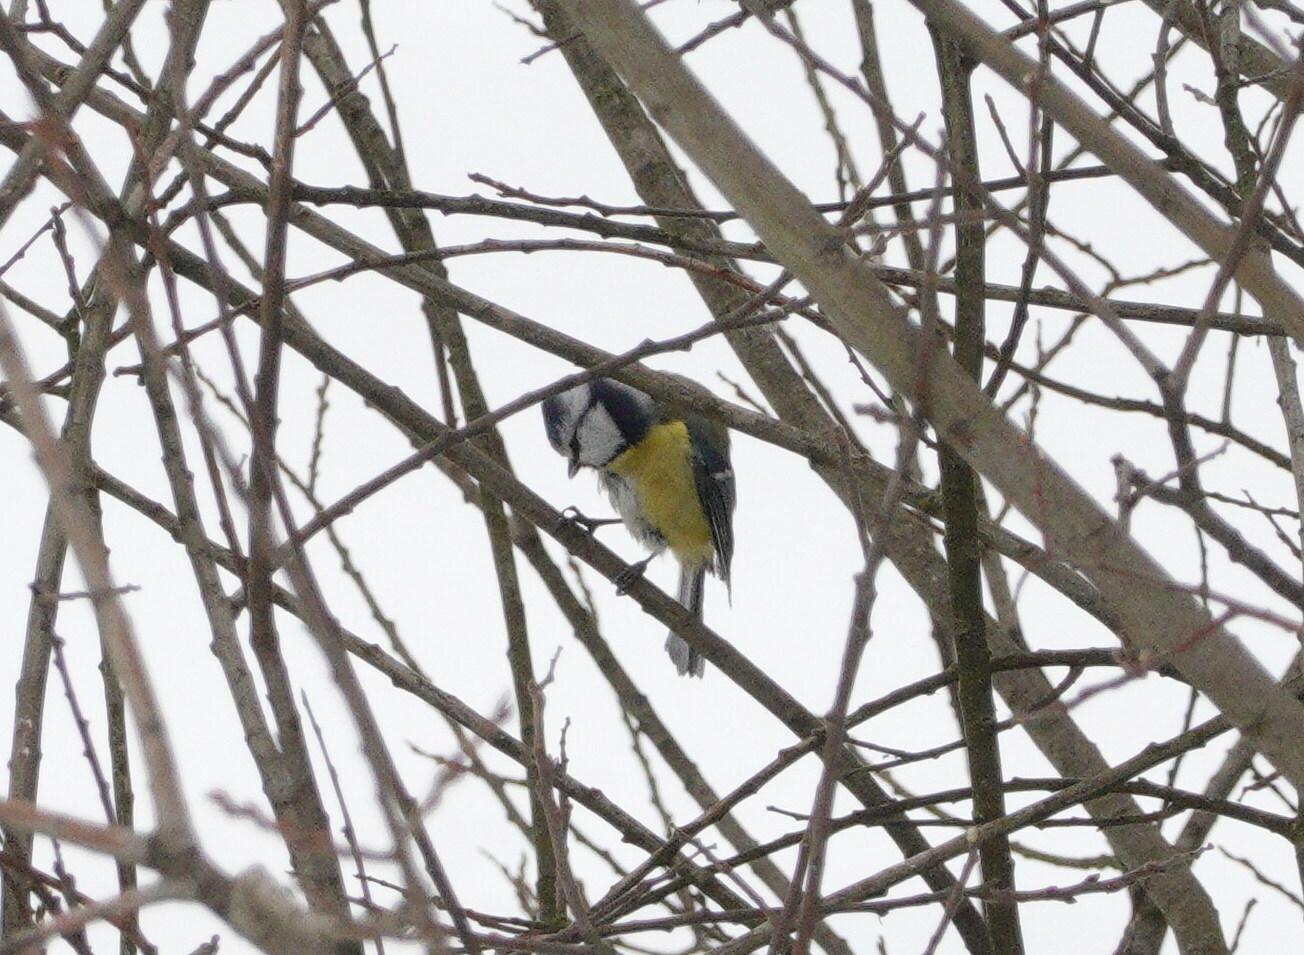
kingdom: Animalia
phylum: Chordata
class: Aves
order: Passeriformes
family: Paridae
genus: Cyanistes
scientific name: Cyanistes caeruleus
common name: Eurasian blue tit
